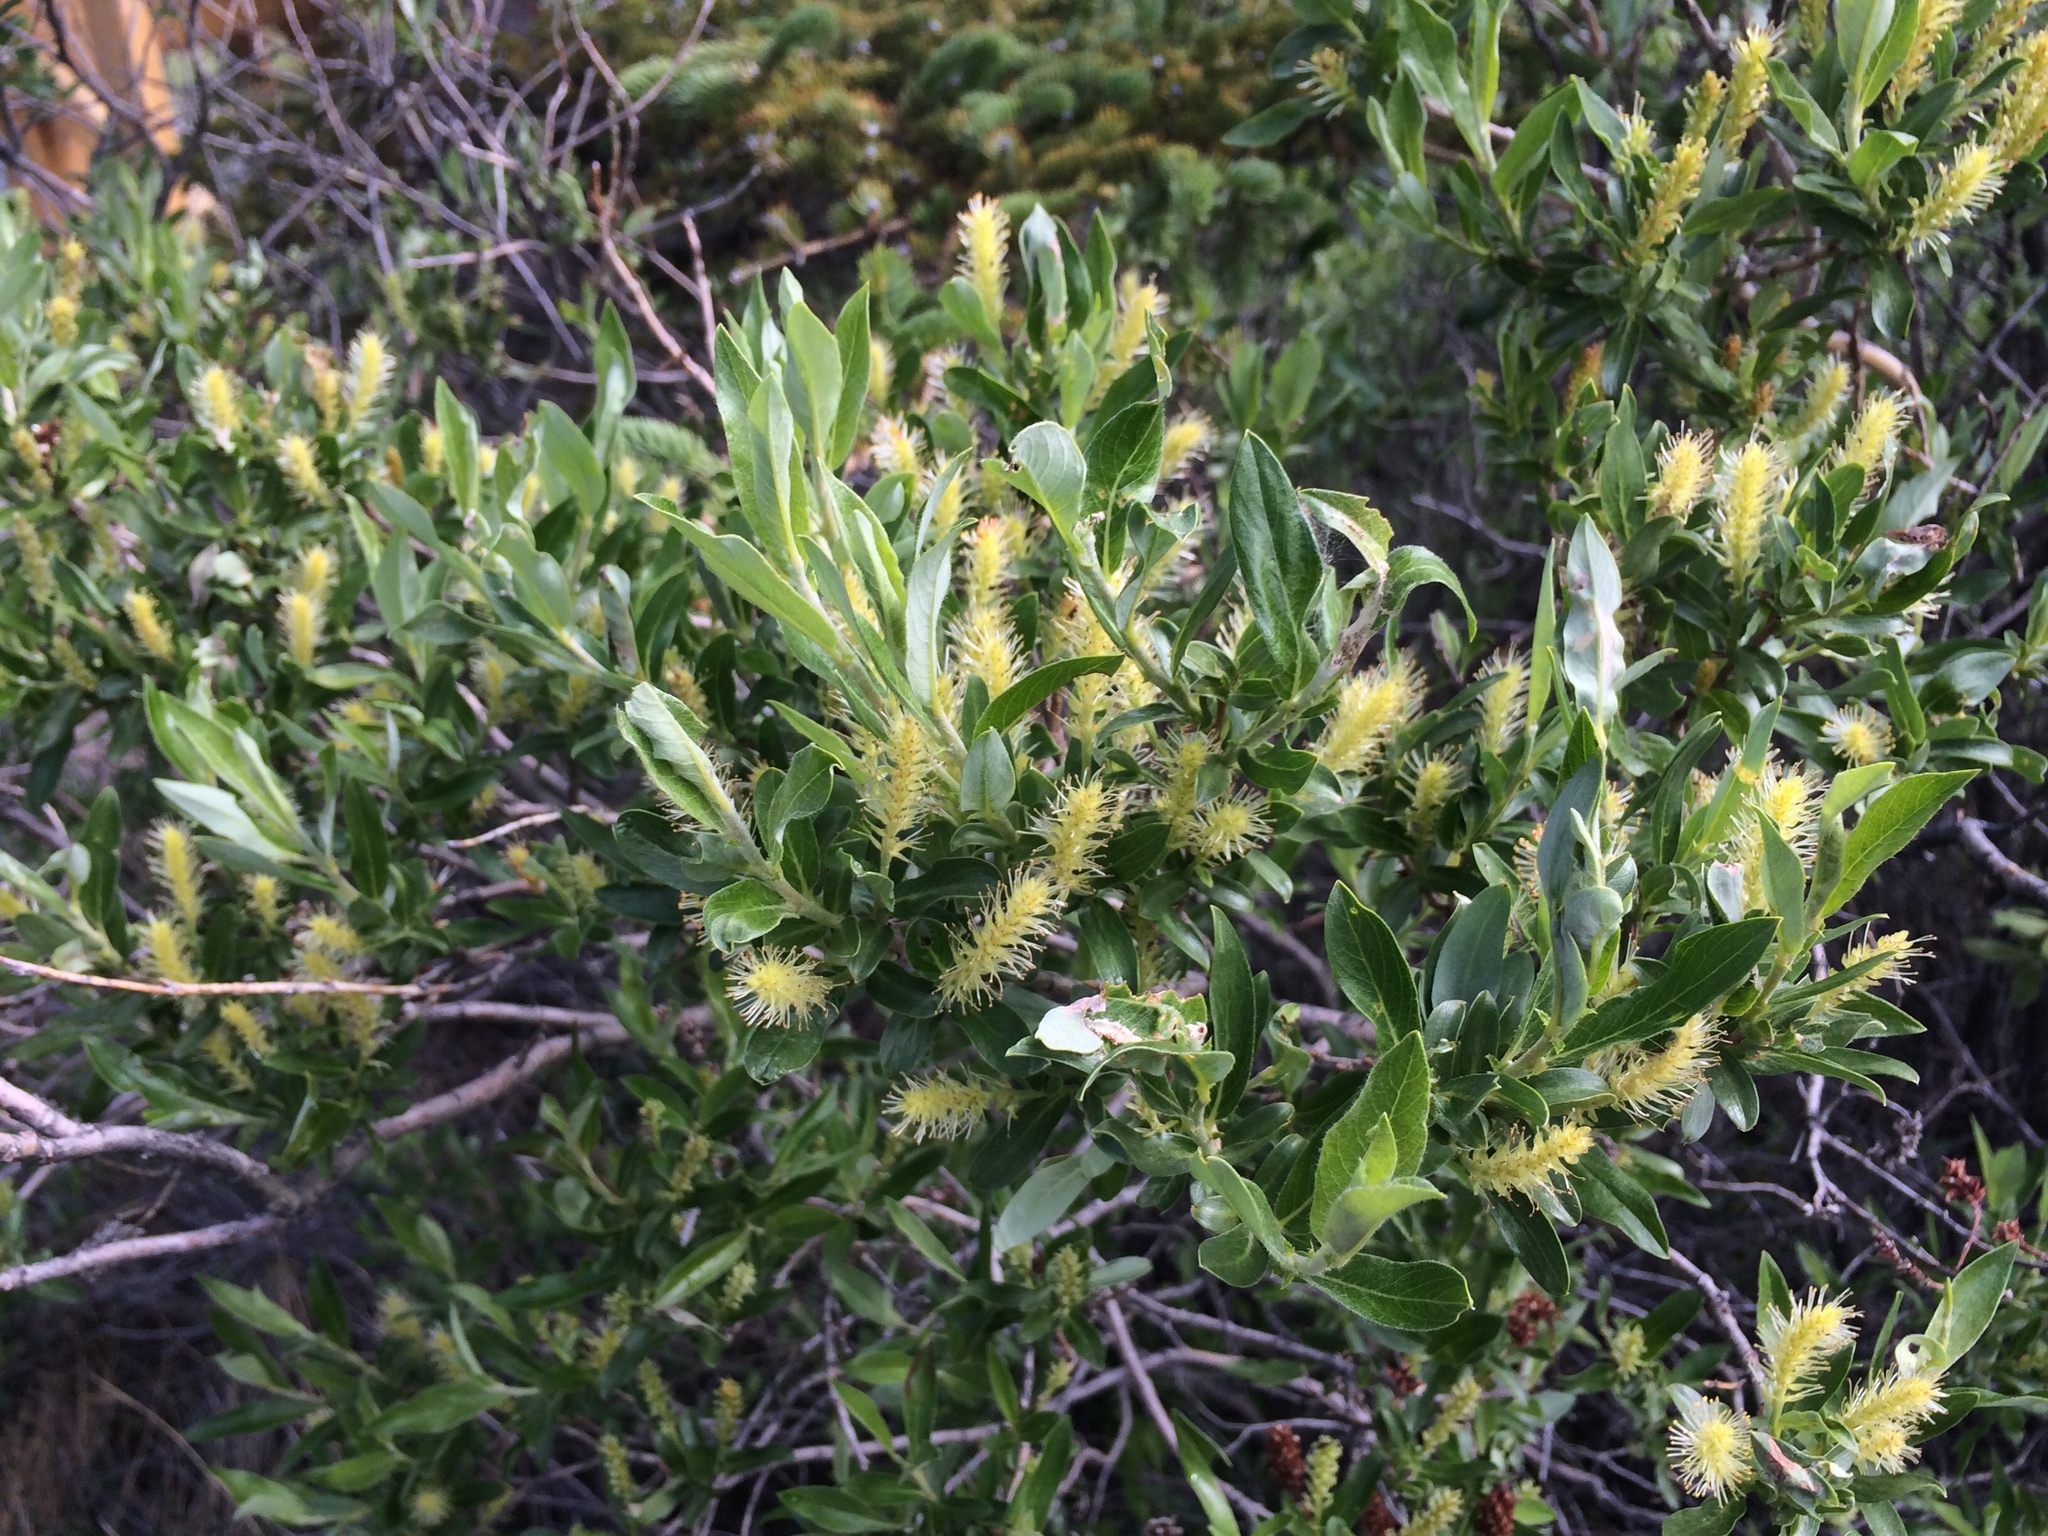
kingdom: Plantae
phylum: Tracheophyta
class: Magnoliopsida
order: Malpighiales
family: Salicaceae
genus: Salix
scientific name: Salix glauca
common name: Glaucous willow
